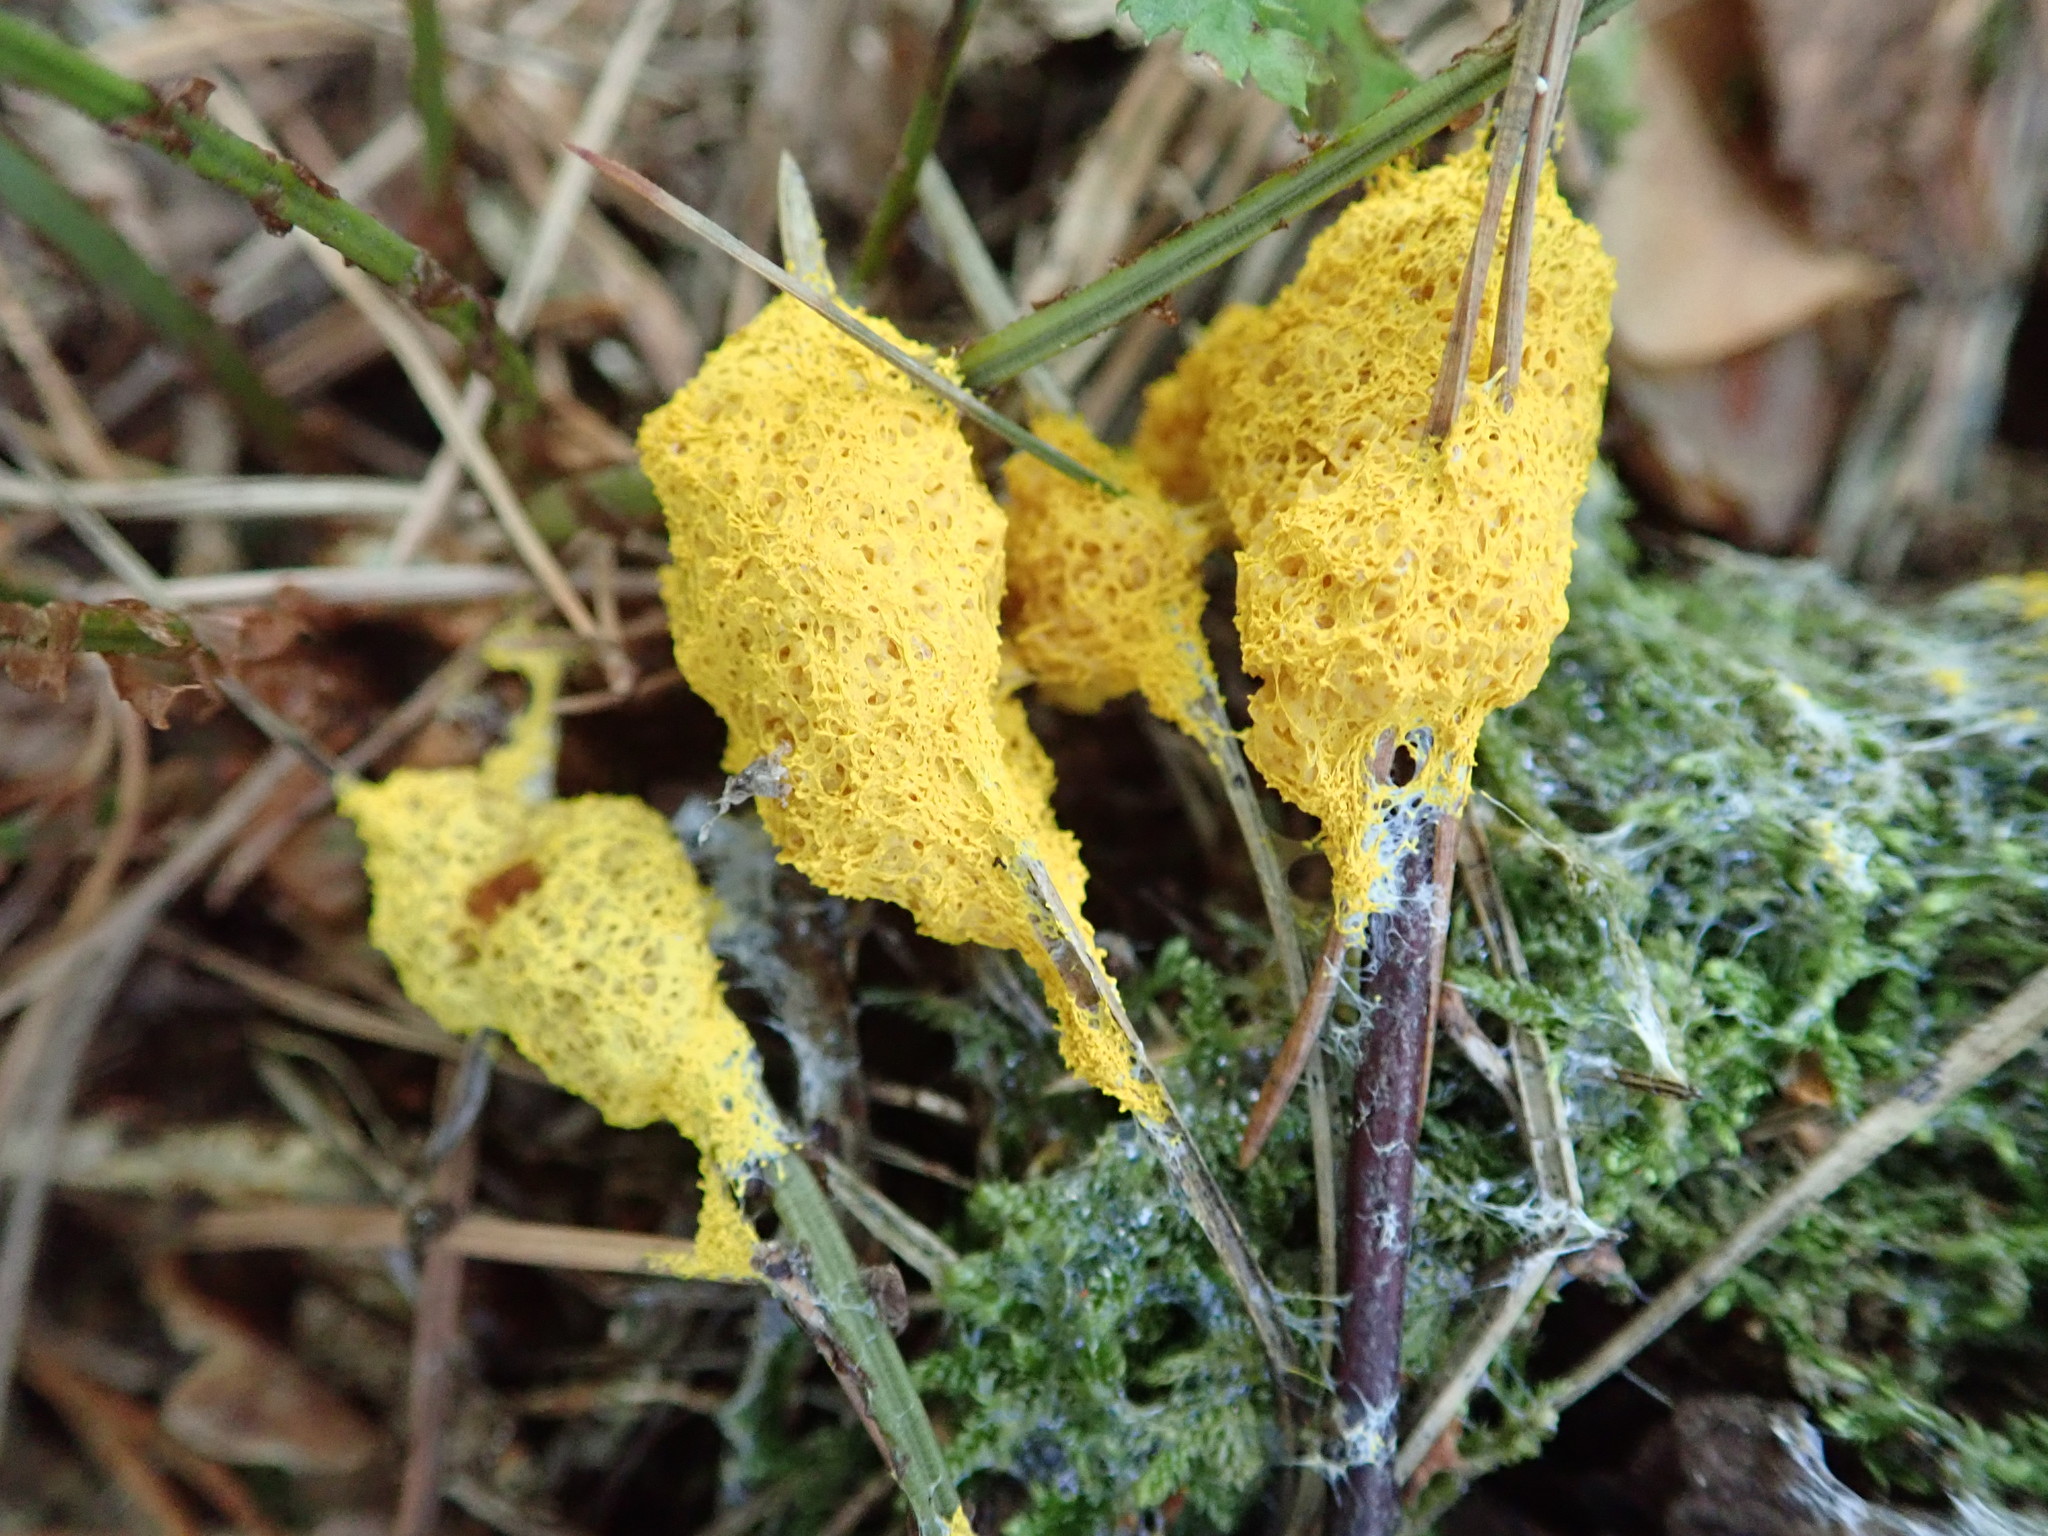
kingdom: Protozoa
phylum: Mycetozoa
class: Myxomycetes
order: Physarales
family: Physaraceae
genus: Fuligo
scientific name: Fuligo septica
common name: Dog vomit slime mold
